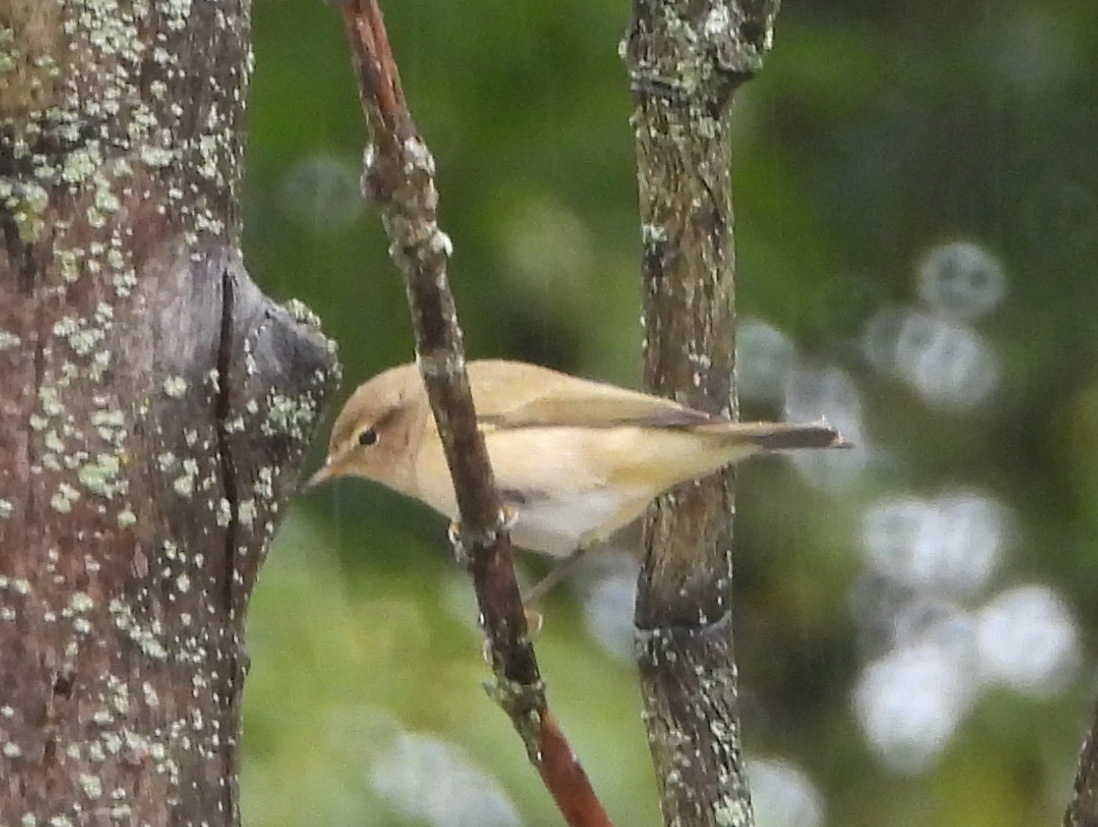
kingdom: Animalia
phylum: Chordata
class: Aves
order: Passeriformes
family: Phylloscopidae
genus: Phylloscopus
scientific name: Phylloscopus collybita
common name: Common chiffchaff
